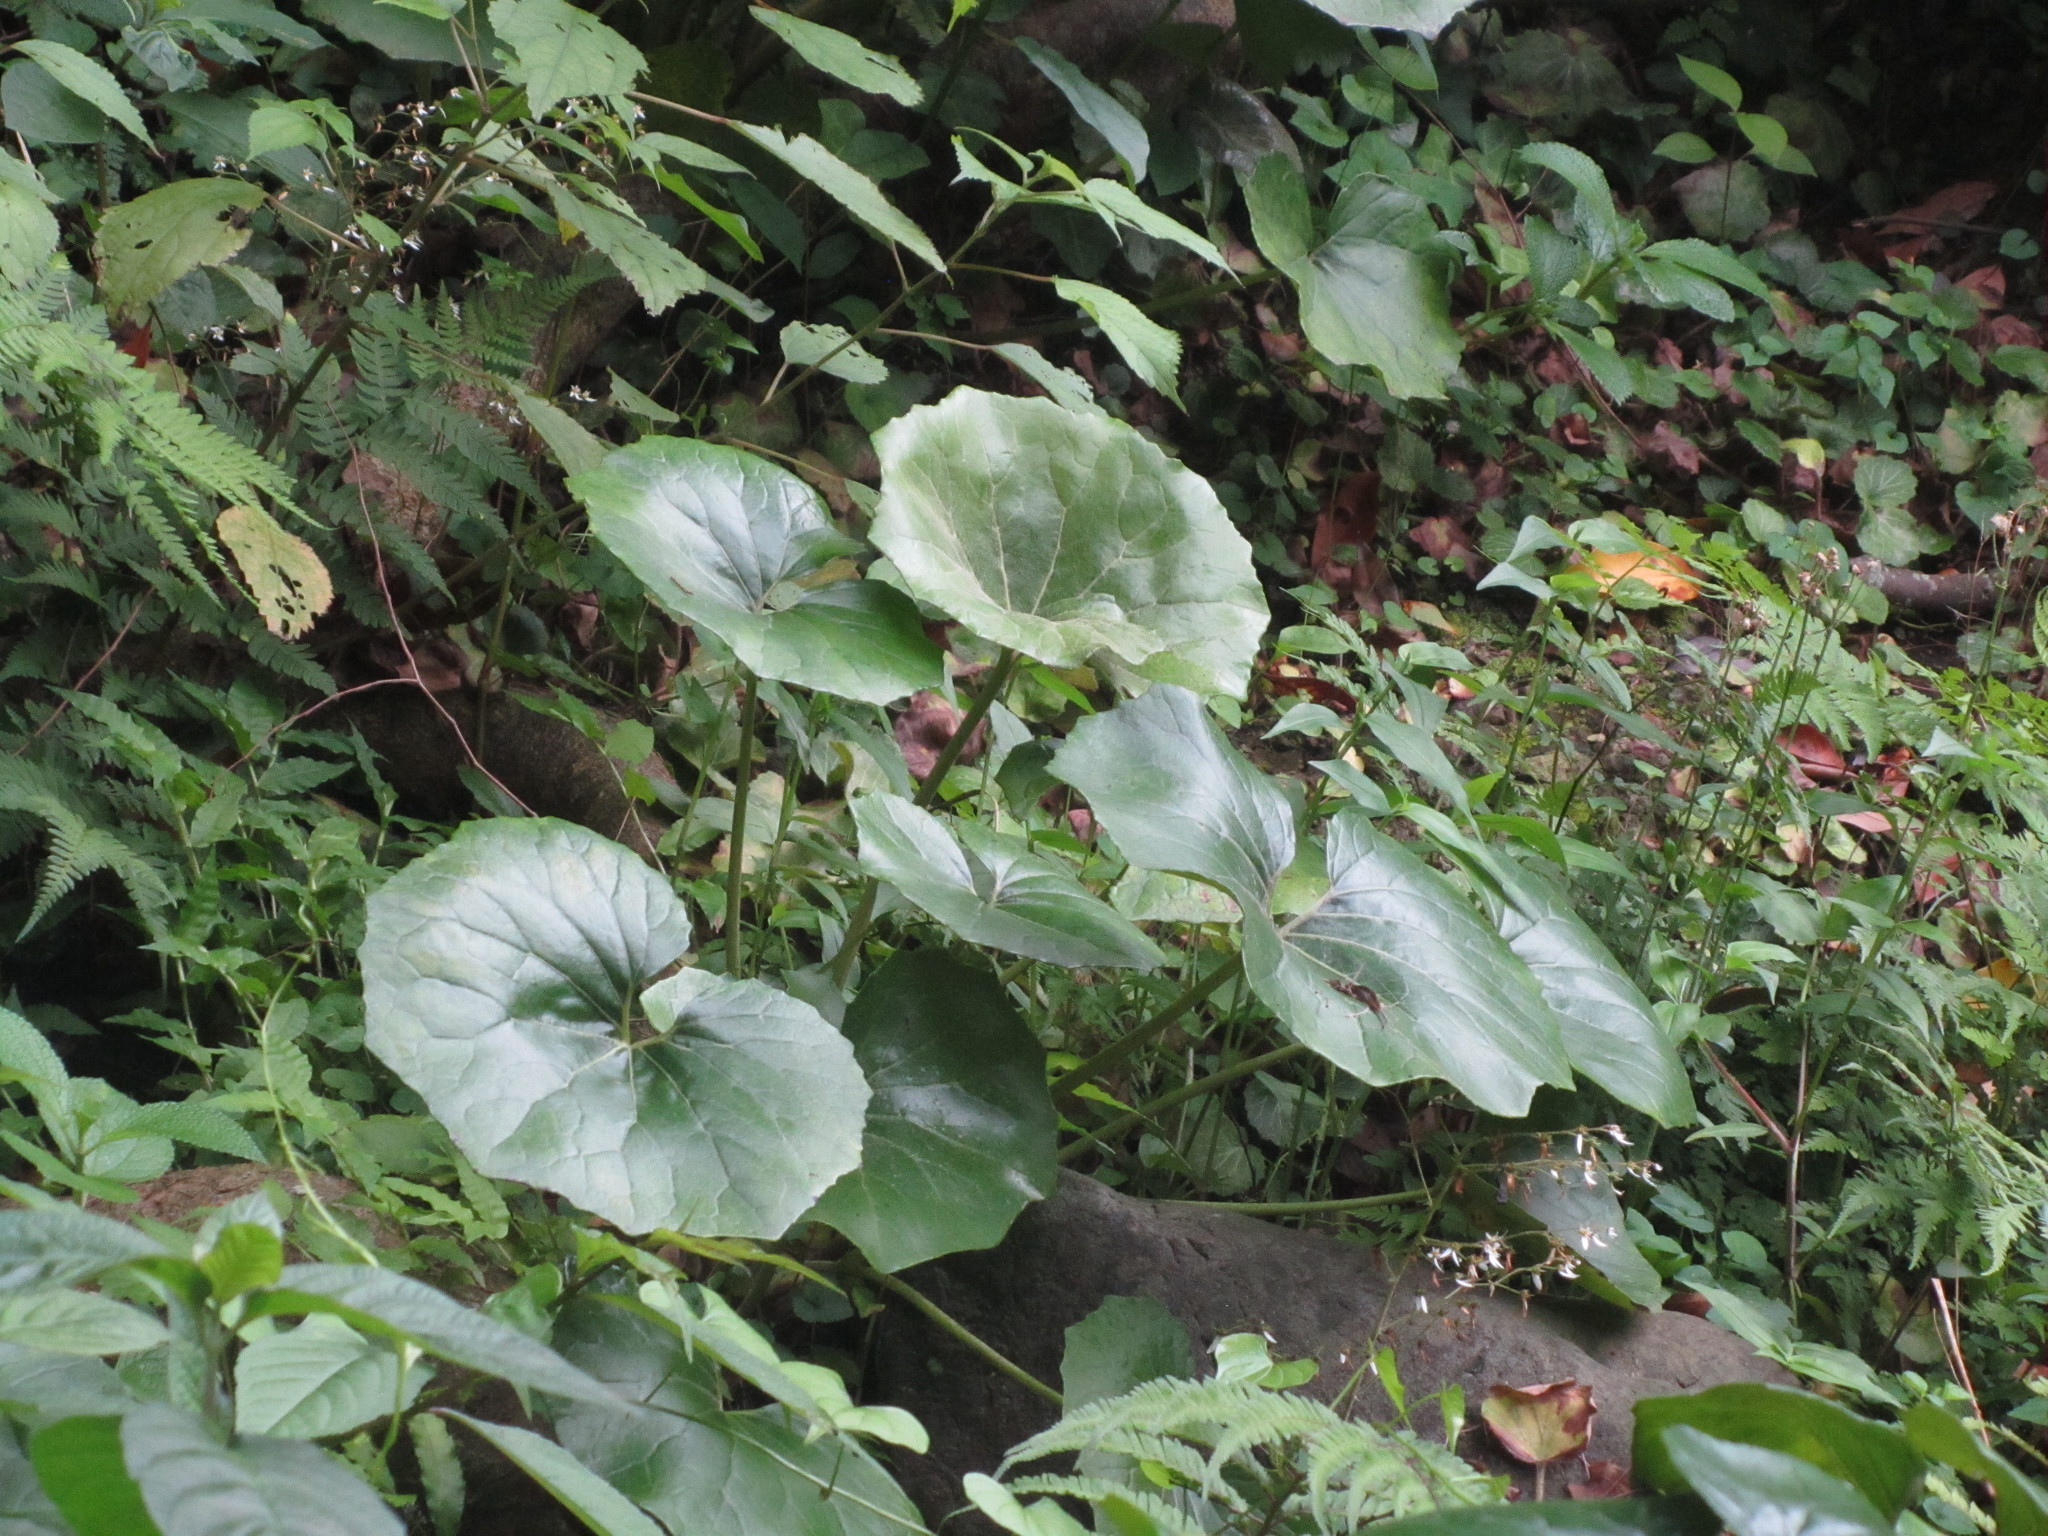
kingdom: Plantae
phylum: Tracheophyta
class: Magnoliopsida
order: Asterales
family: Asteraceae
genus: Farfugium
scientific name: Farfugium japonicum
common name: Leopardplant
